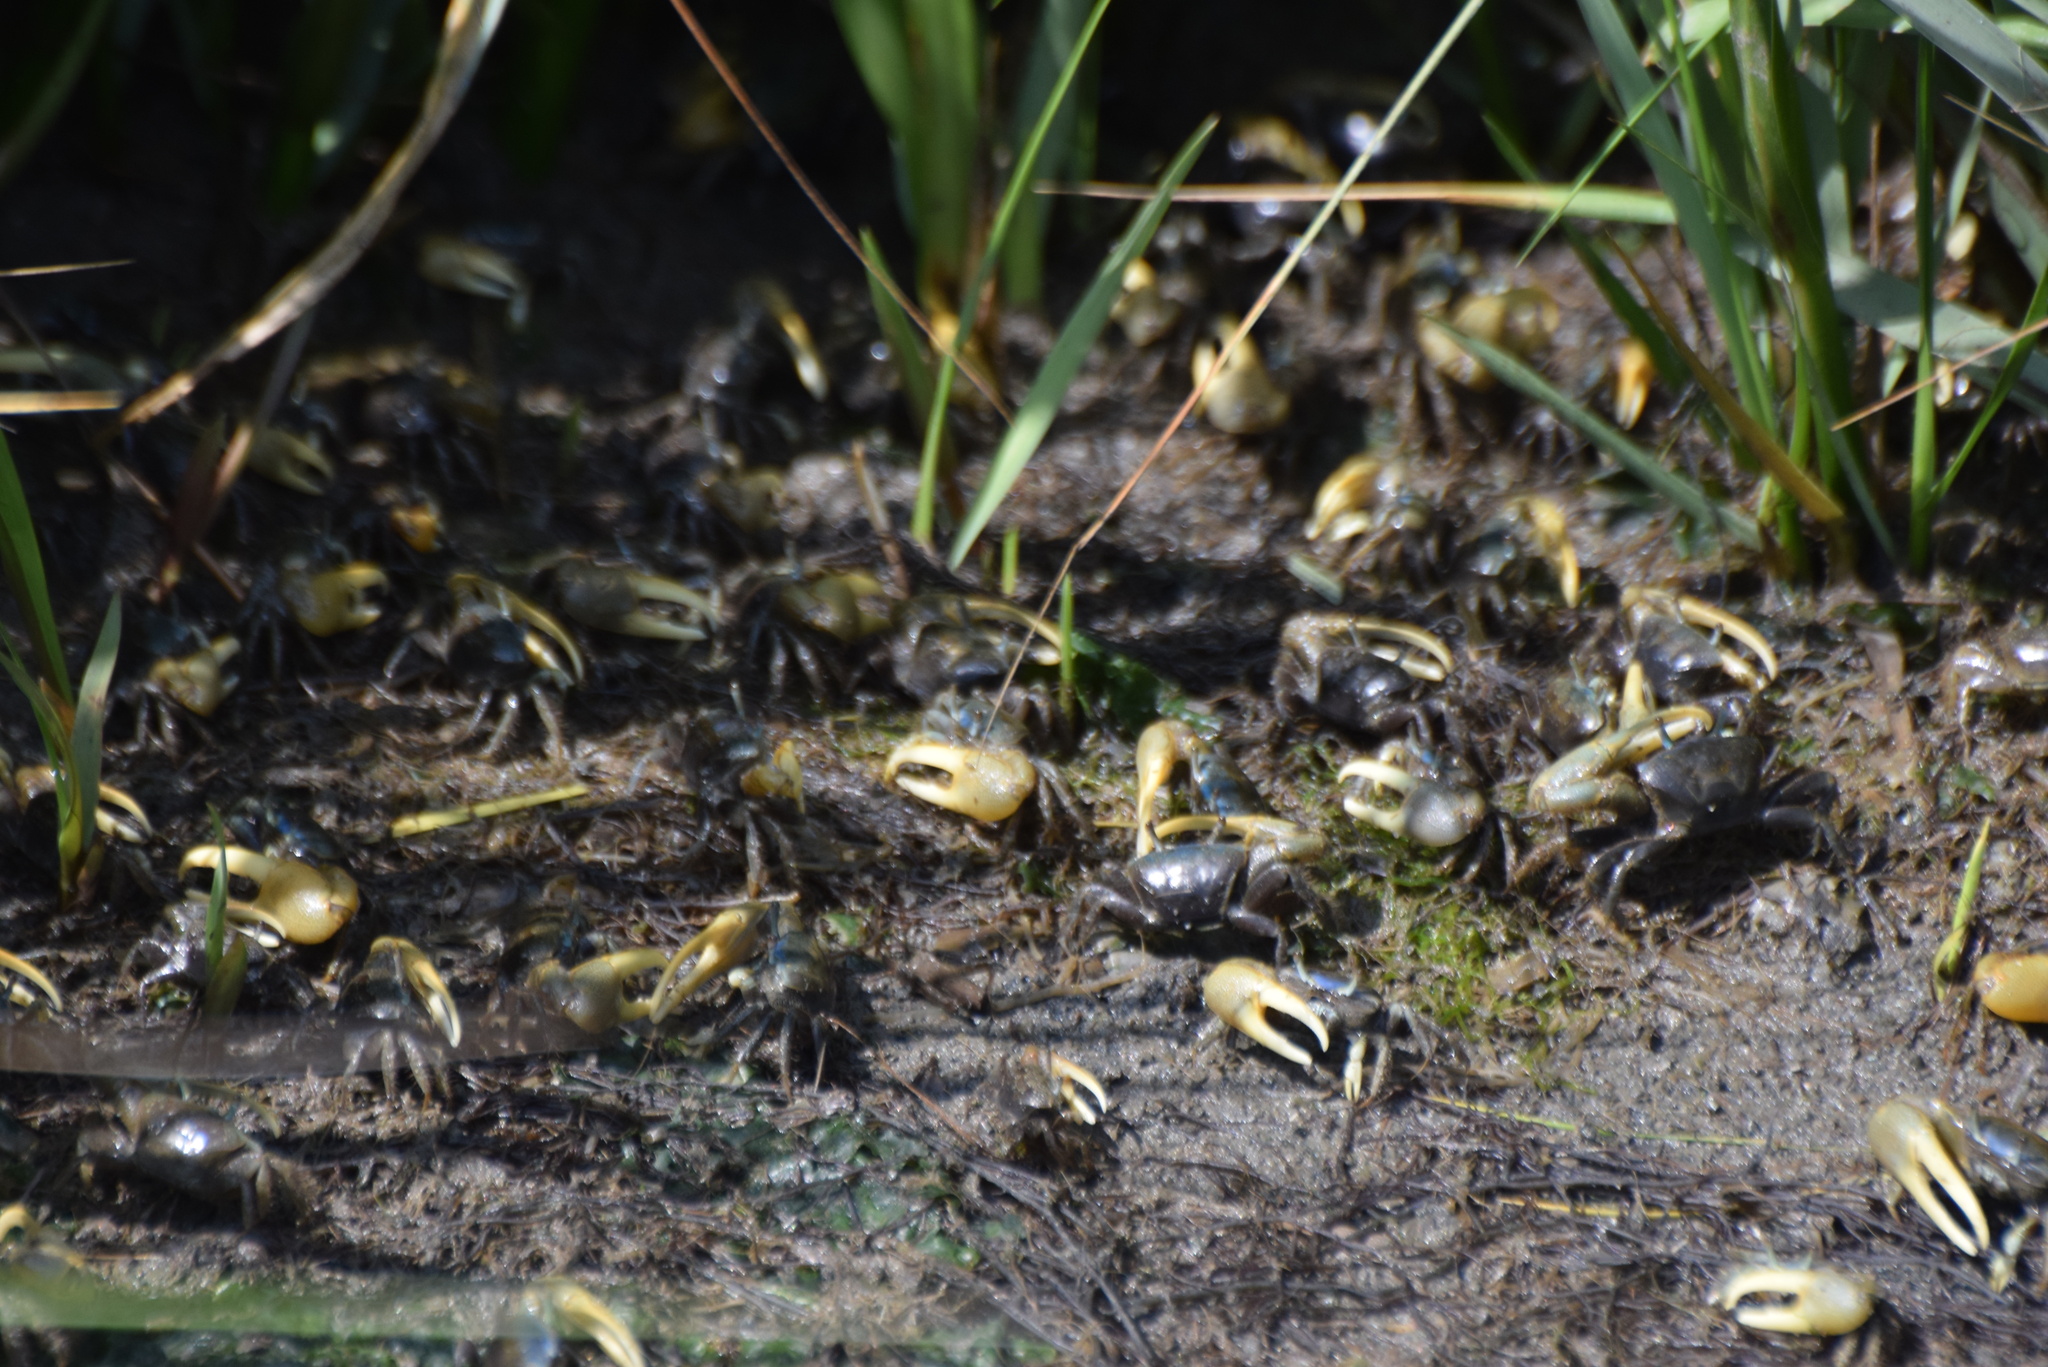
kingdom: Animalia
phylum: Arthropoda
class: Malacostraca
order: Decapoda
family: Ocypodidae
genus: Minuca
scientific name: Minuca pugnax
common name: Mud fiddler crab
